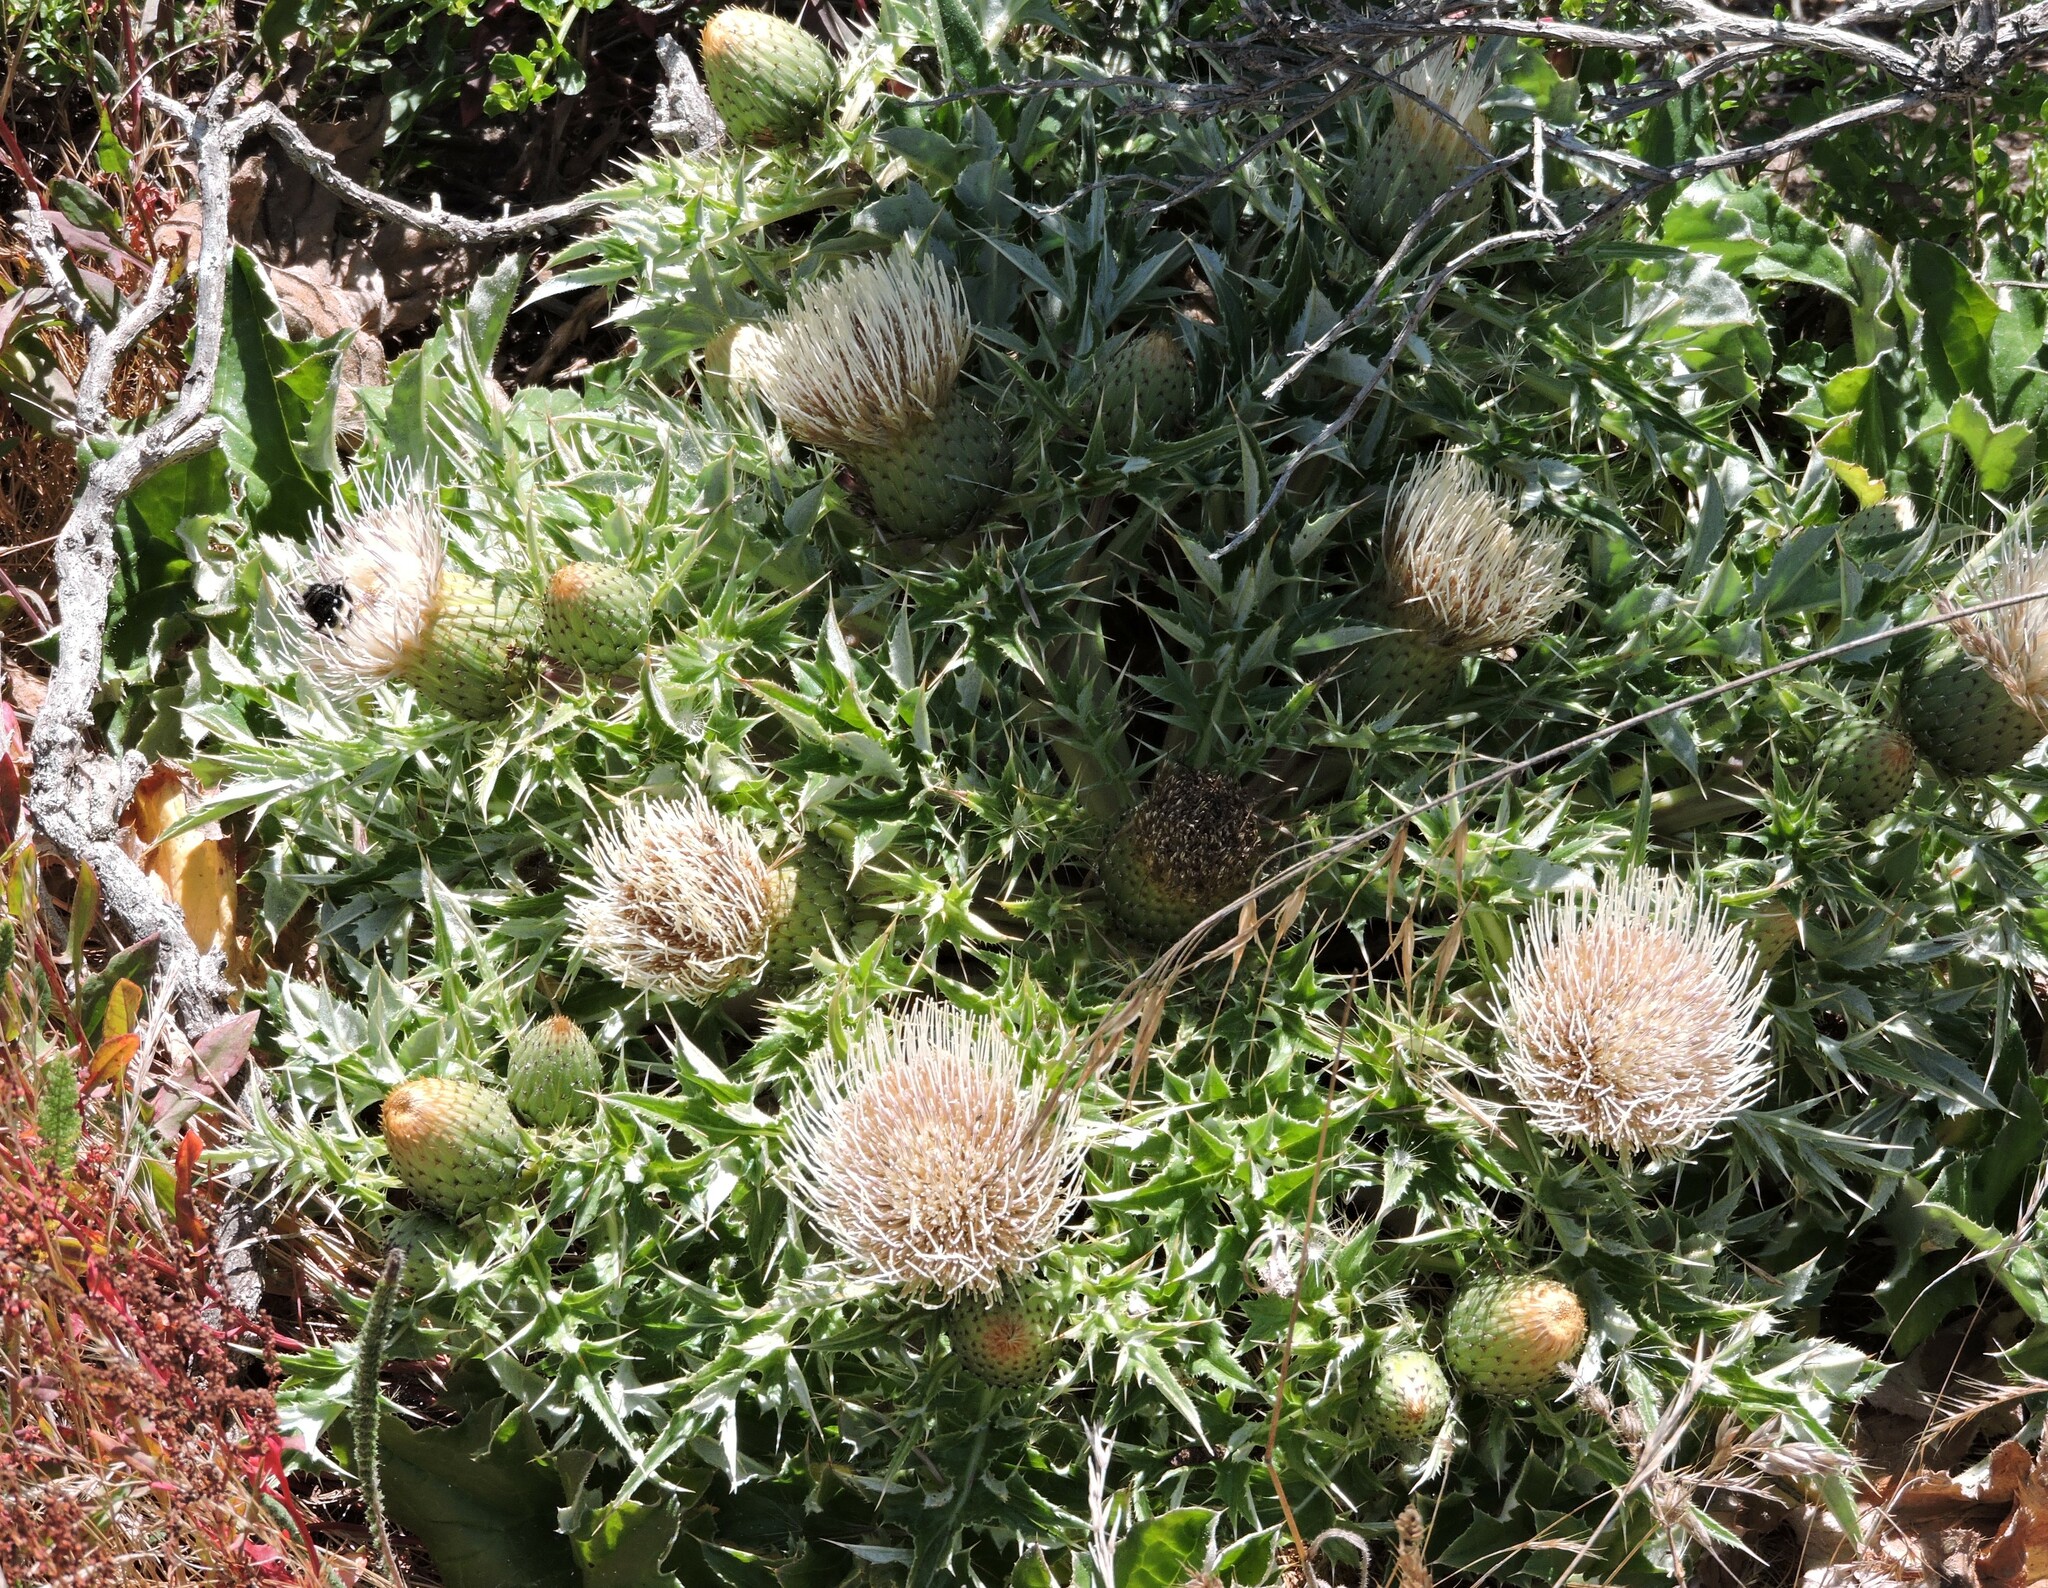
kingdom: Plantae
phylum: Tracheophyta
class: Magnoliopsida
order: Asterales
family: Asteraceae
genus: Cirsium
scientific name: Cirsium quercetorum
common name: Alameda county thistle
